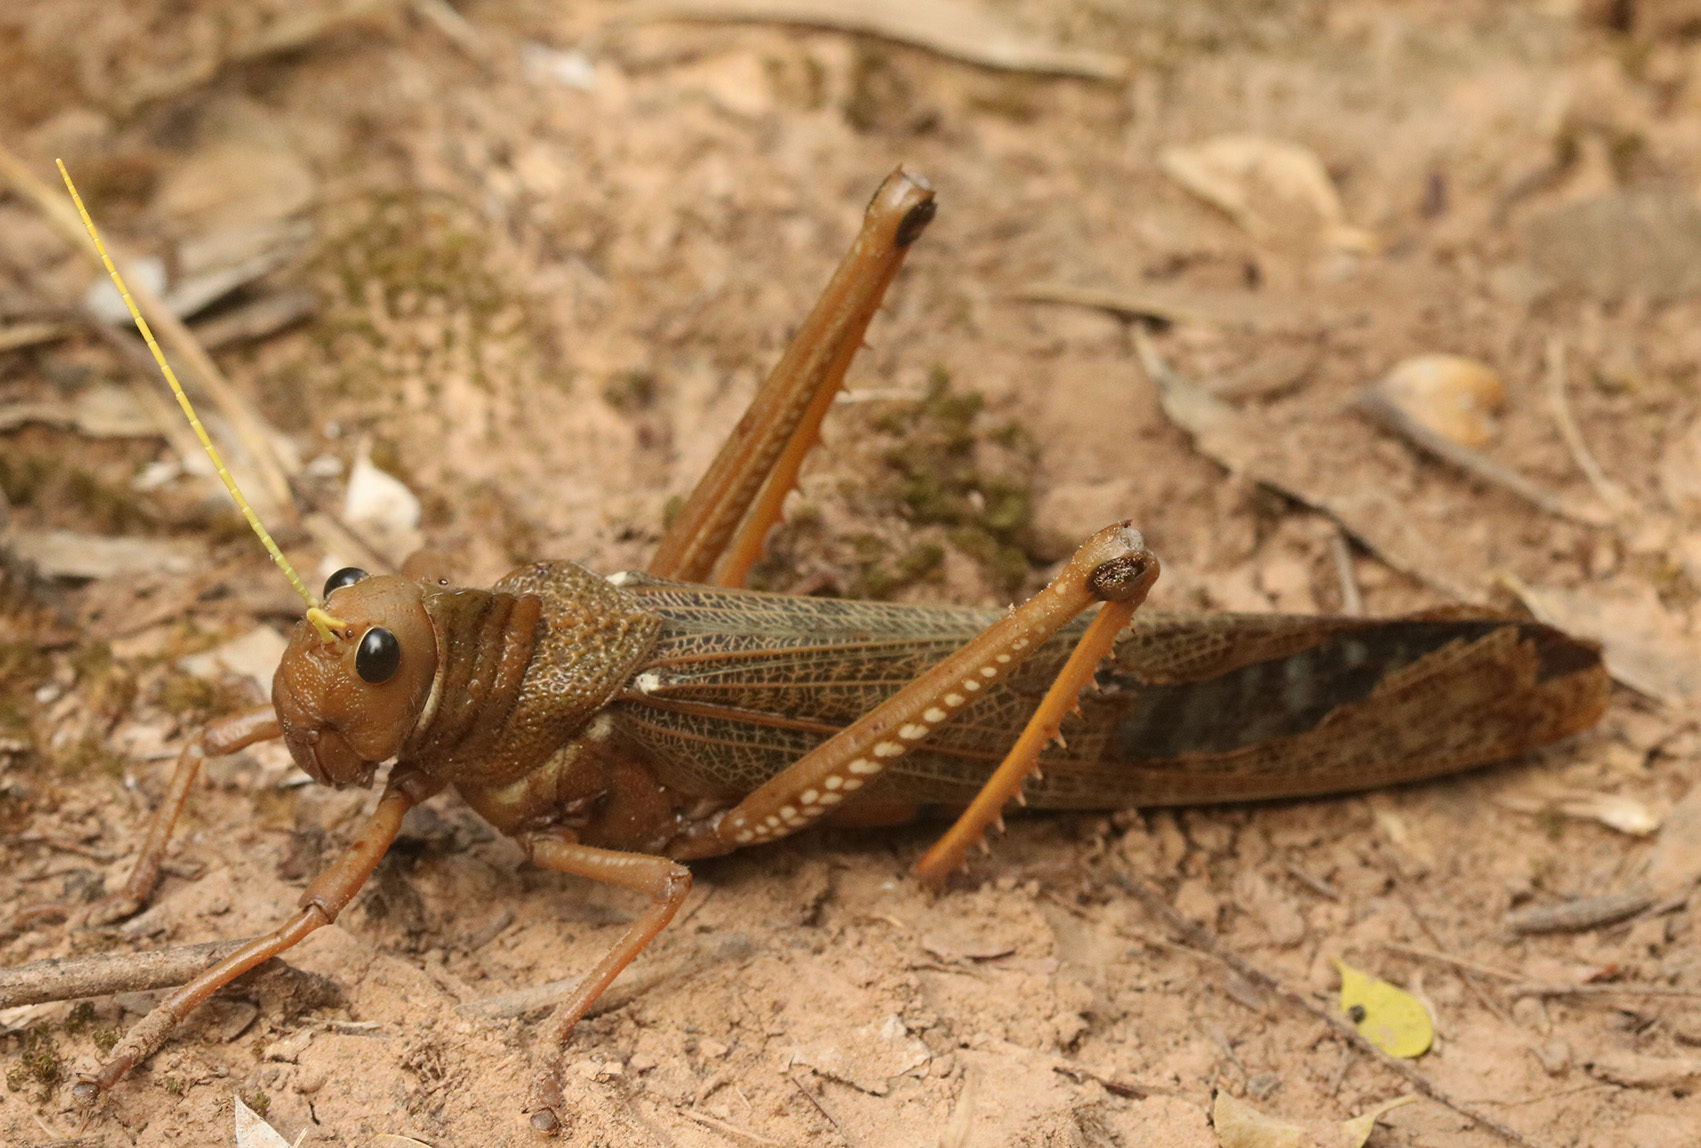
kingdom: Animalia
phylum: Arthropoda
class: Insecta
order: Orthoptera
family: Romaleidae
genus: Tropidacris
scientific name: Tropidacris collaris
